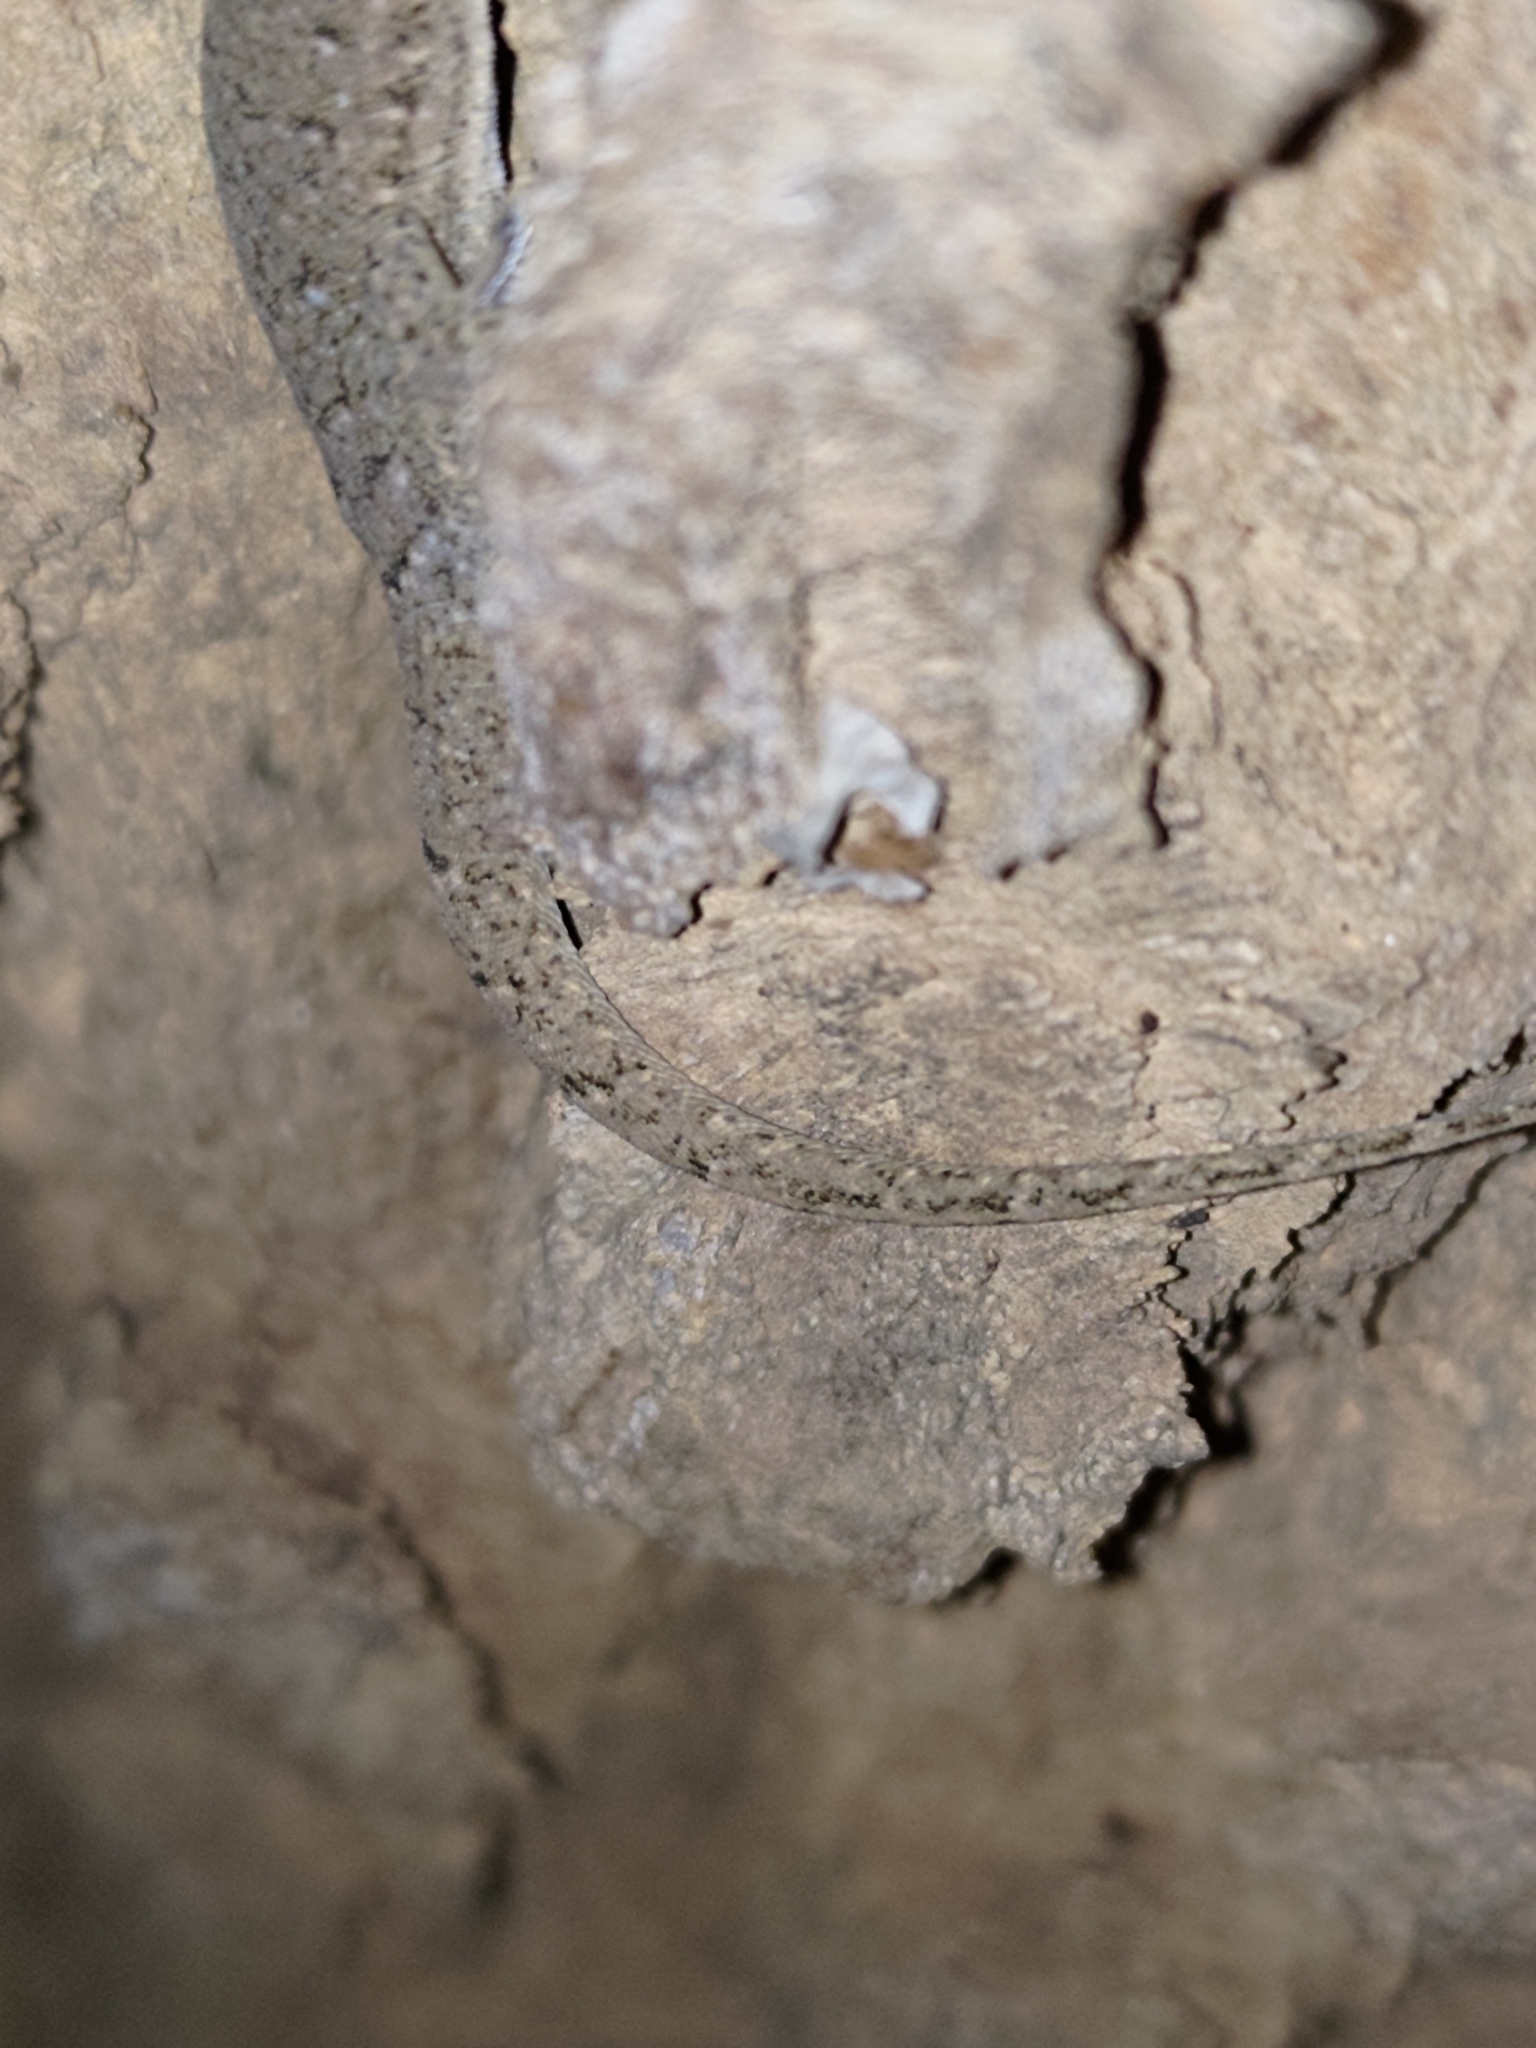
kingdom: Animalia
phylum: Chordata
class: Squamata
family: Gekkonidae
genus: Hemidactylus
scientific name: Hemidactylus bowringii
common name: Oriental leaf-toed gecko
